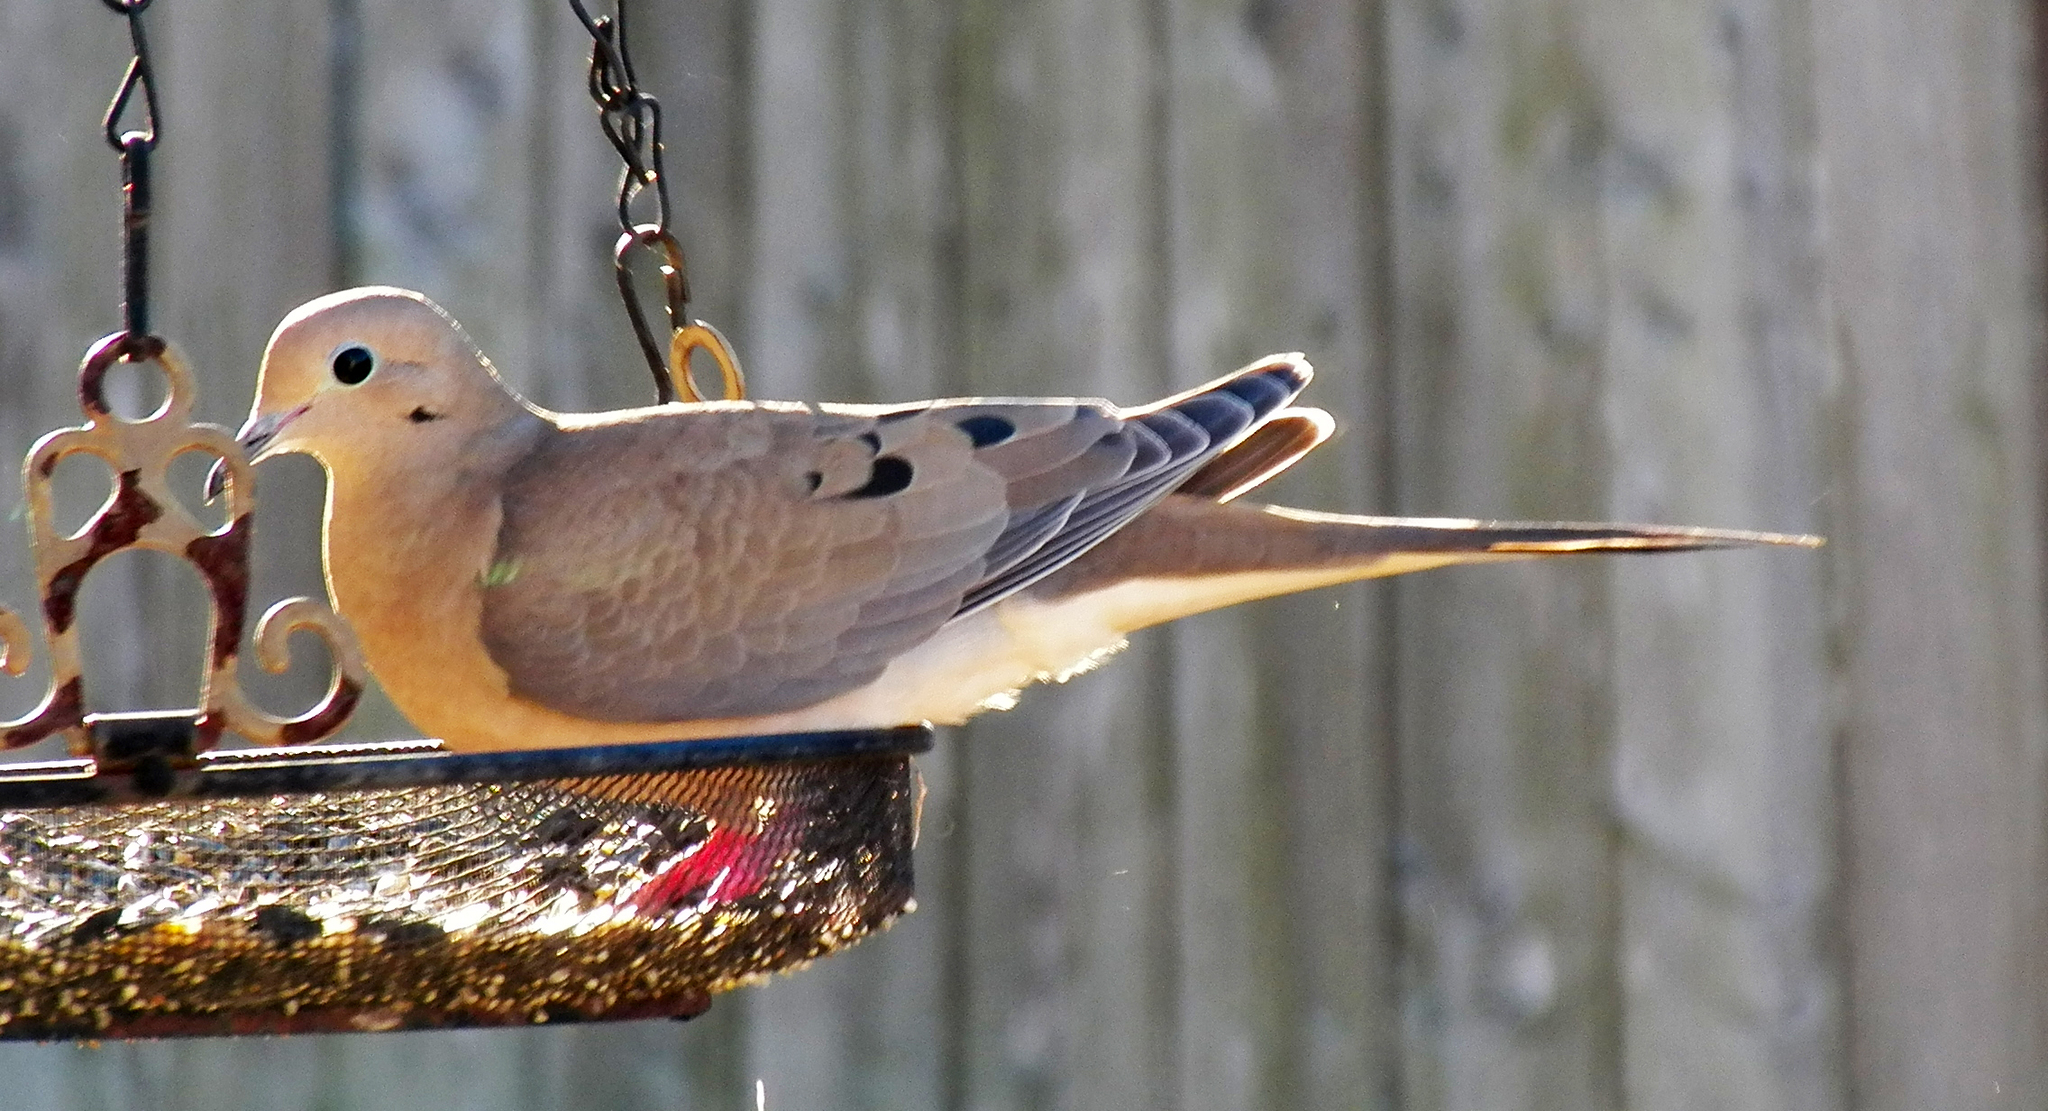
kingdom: Animalia
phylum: Chordata
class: Aves
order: Columbiformes
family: Columbidae
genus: Zenaida
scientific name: Zenaida macroura
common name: Mourning dove
